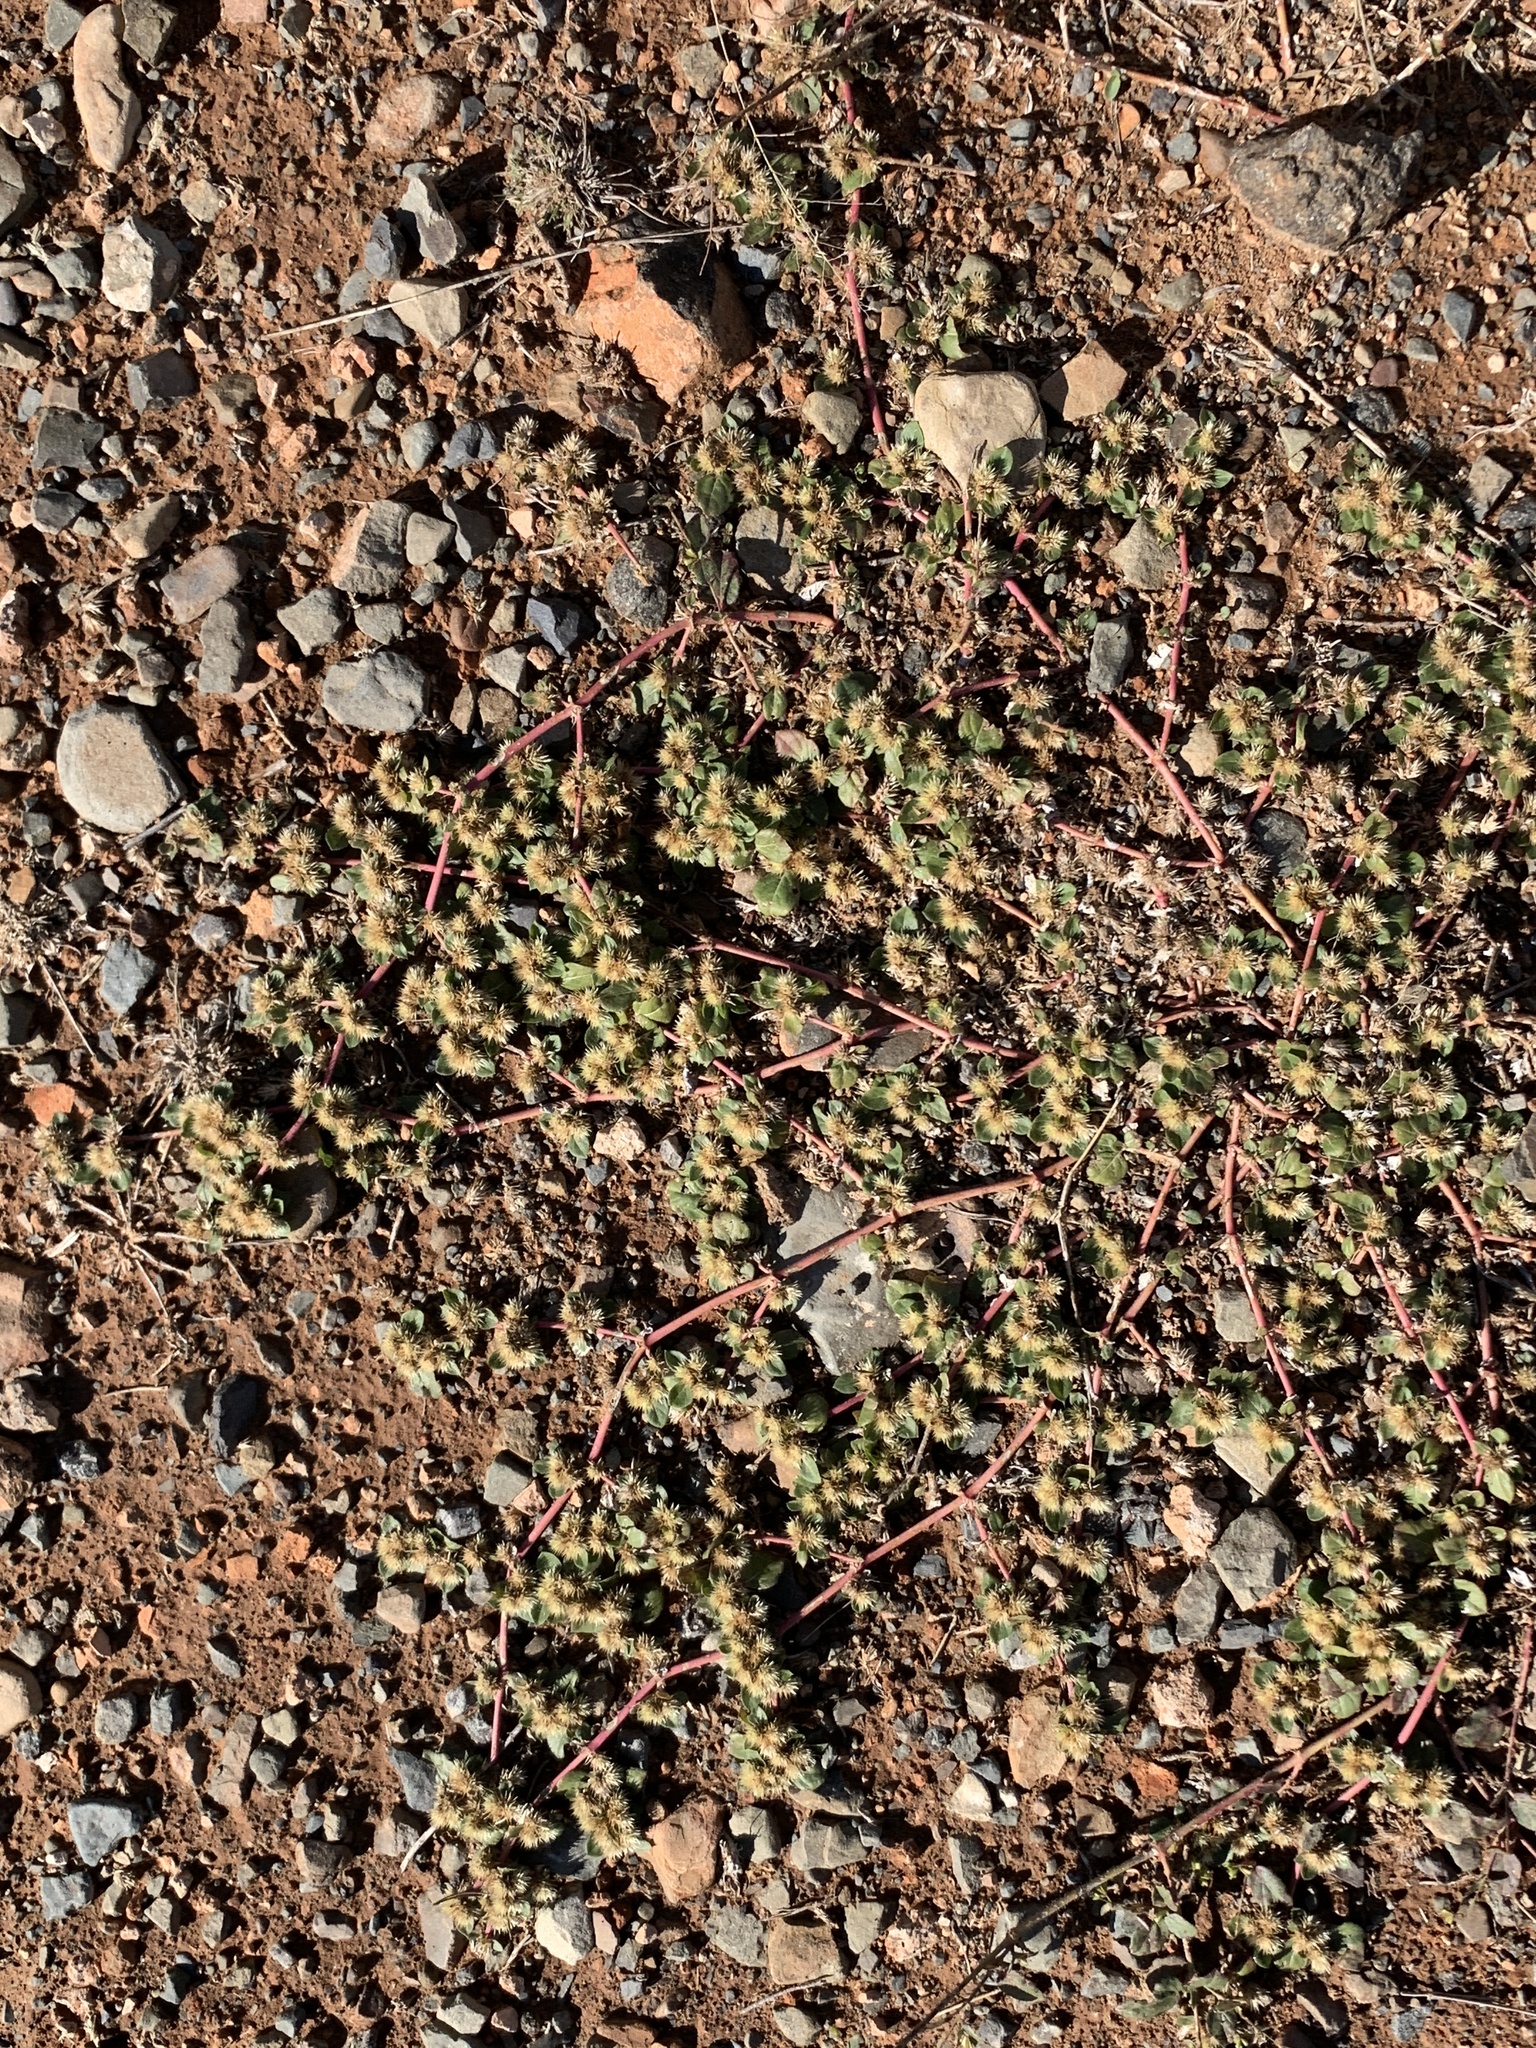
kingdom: Plantae
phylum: Tracheophyta
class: Magnoliopsida
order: Caryophyllales
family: Amaranthaceae
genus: Alternanthera
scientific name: Alternanthera pungens
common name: Khakiweed
